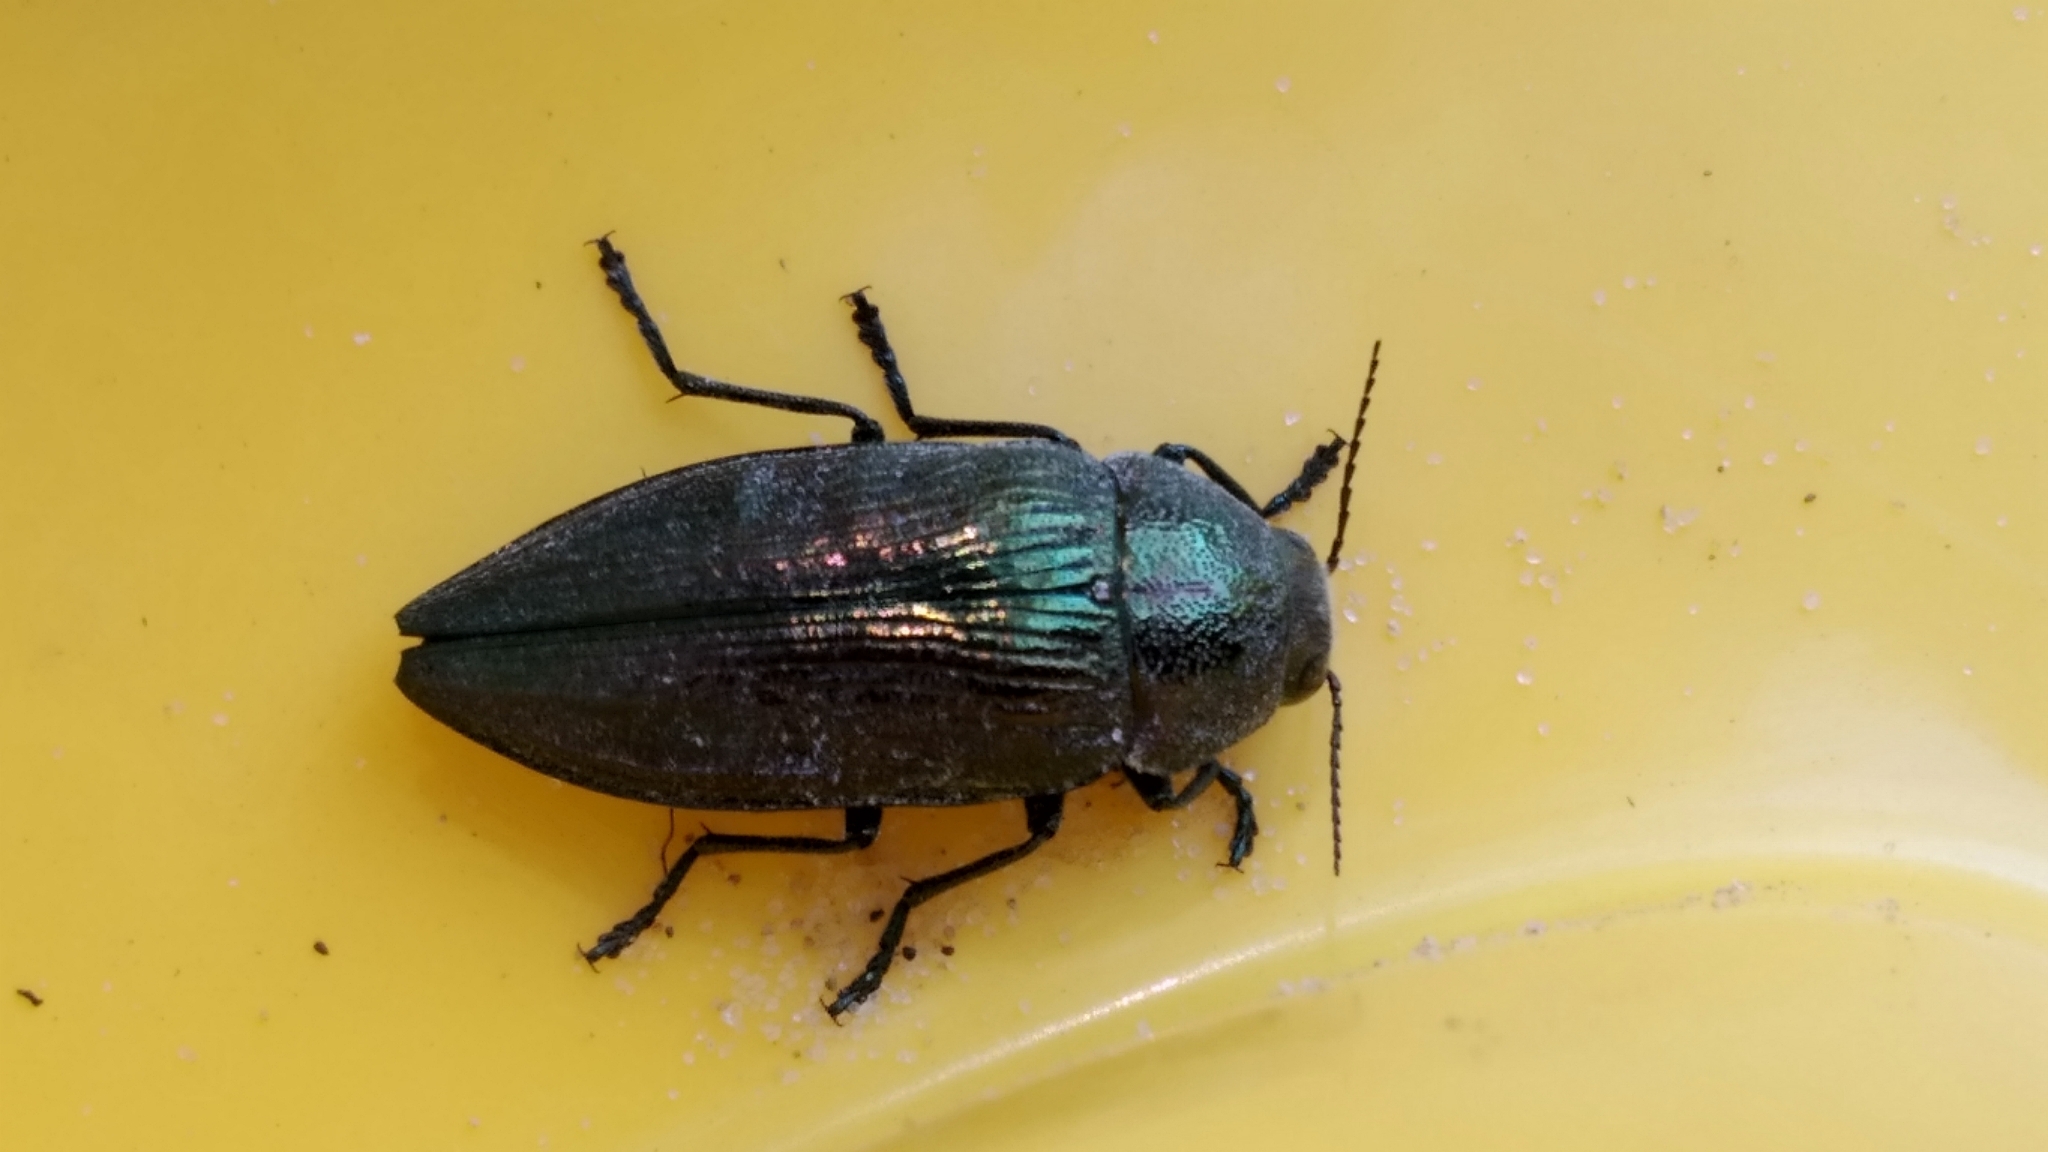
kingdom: Animalia
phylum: Arthropoda
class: Insecta
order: Coleoptera
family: Buprestidae
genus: Buprestis
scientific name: Buprestis rustica
